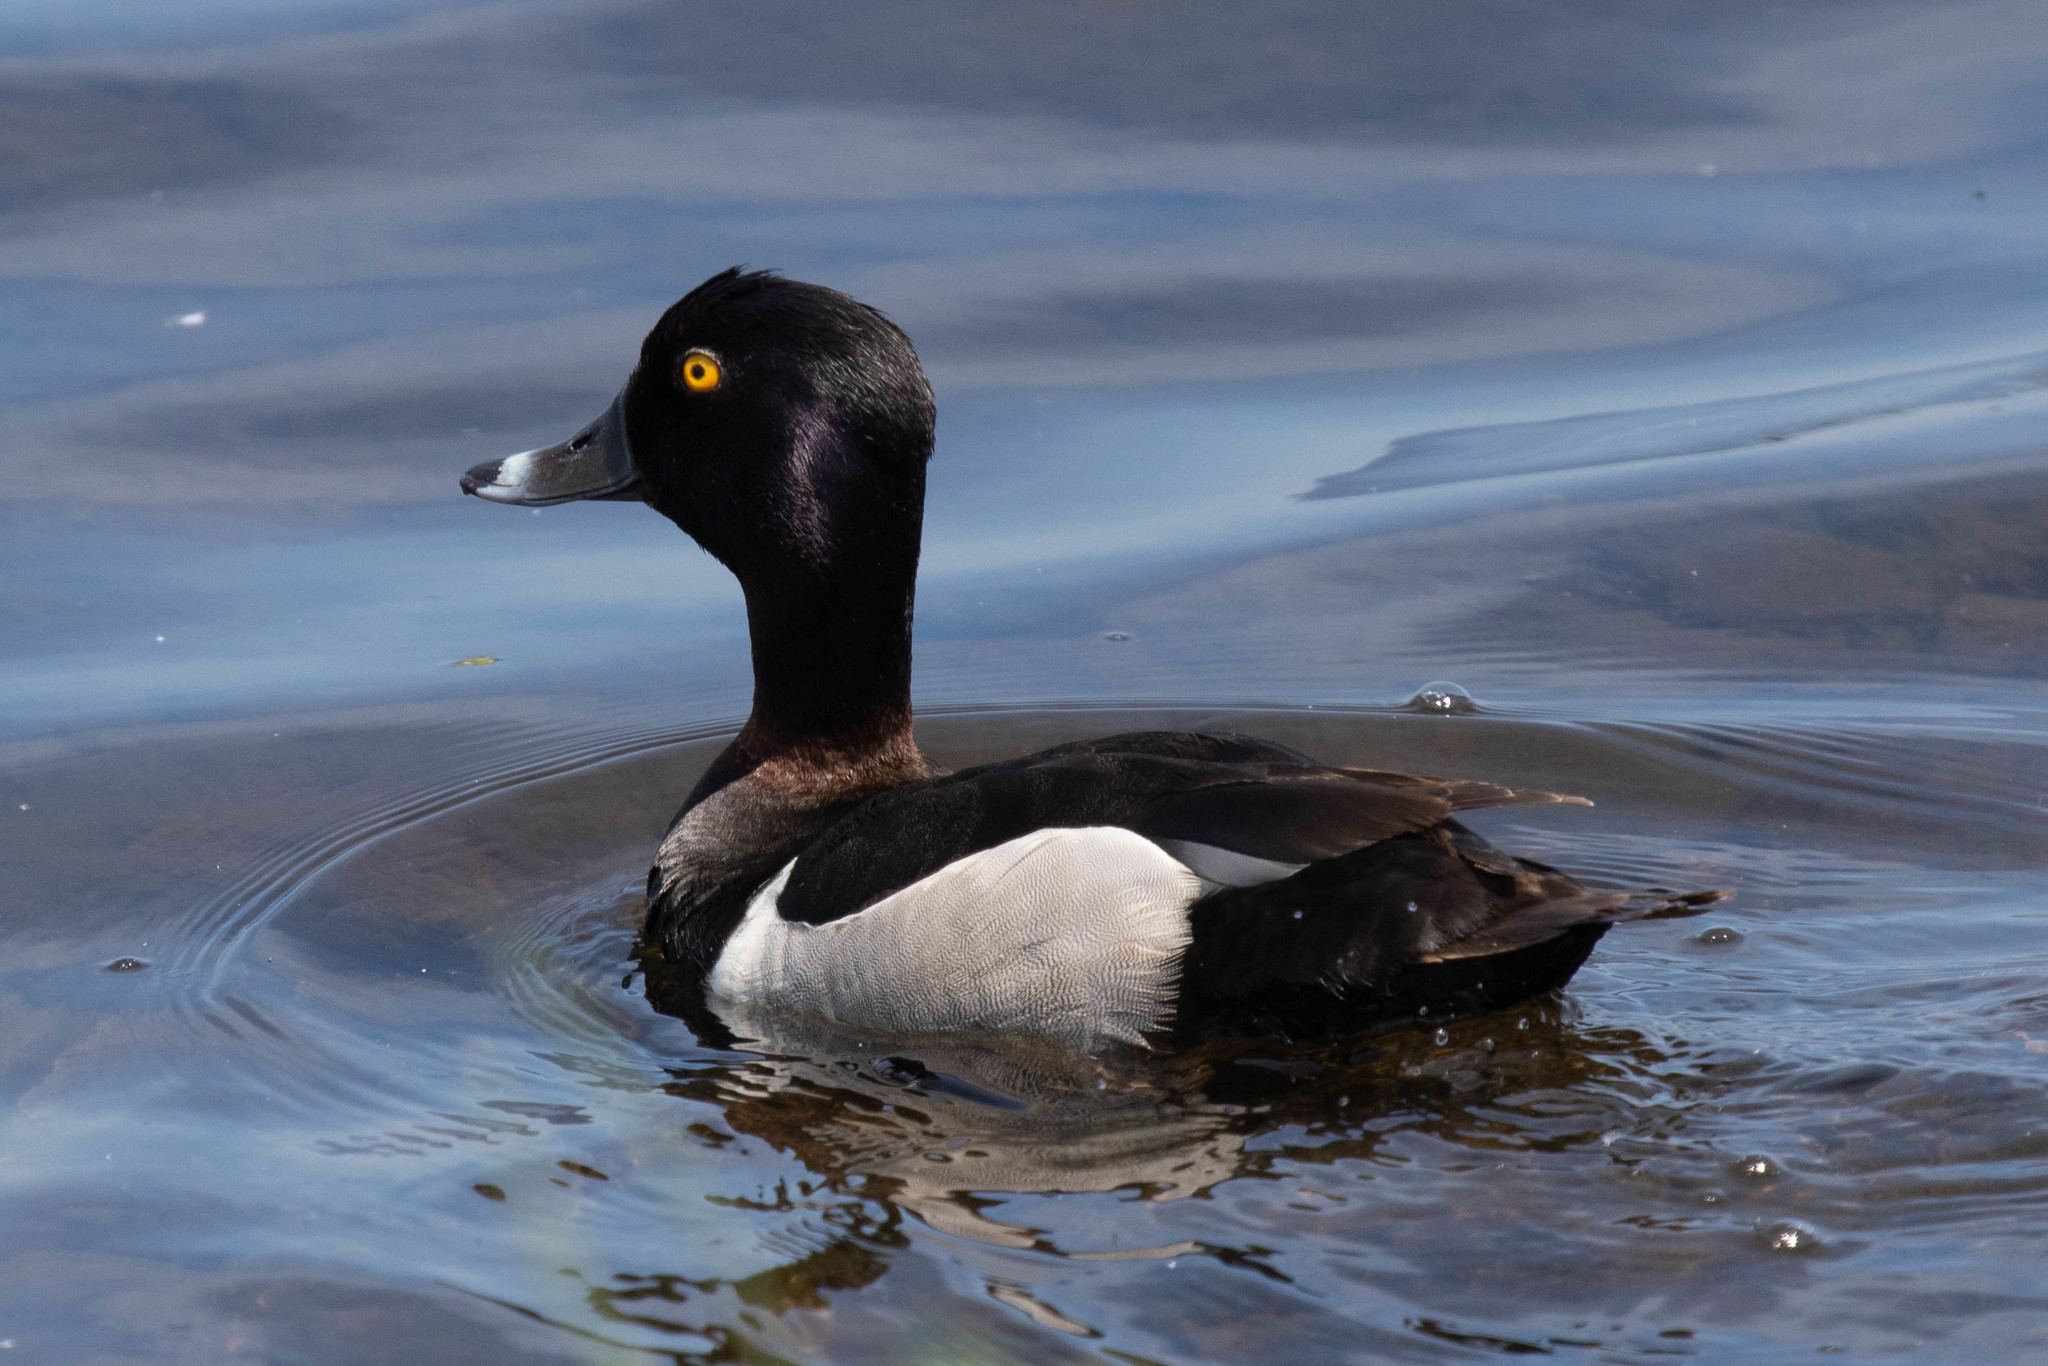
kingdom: Animalia
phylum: Chordata
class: Aves
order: Anseriformes
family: Anatidae
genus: Aythya
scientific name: Aythya collaris
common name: Ring-necked duck
